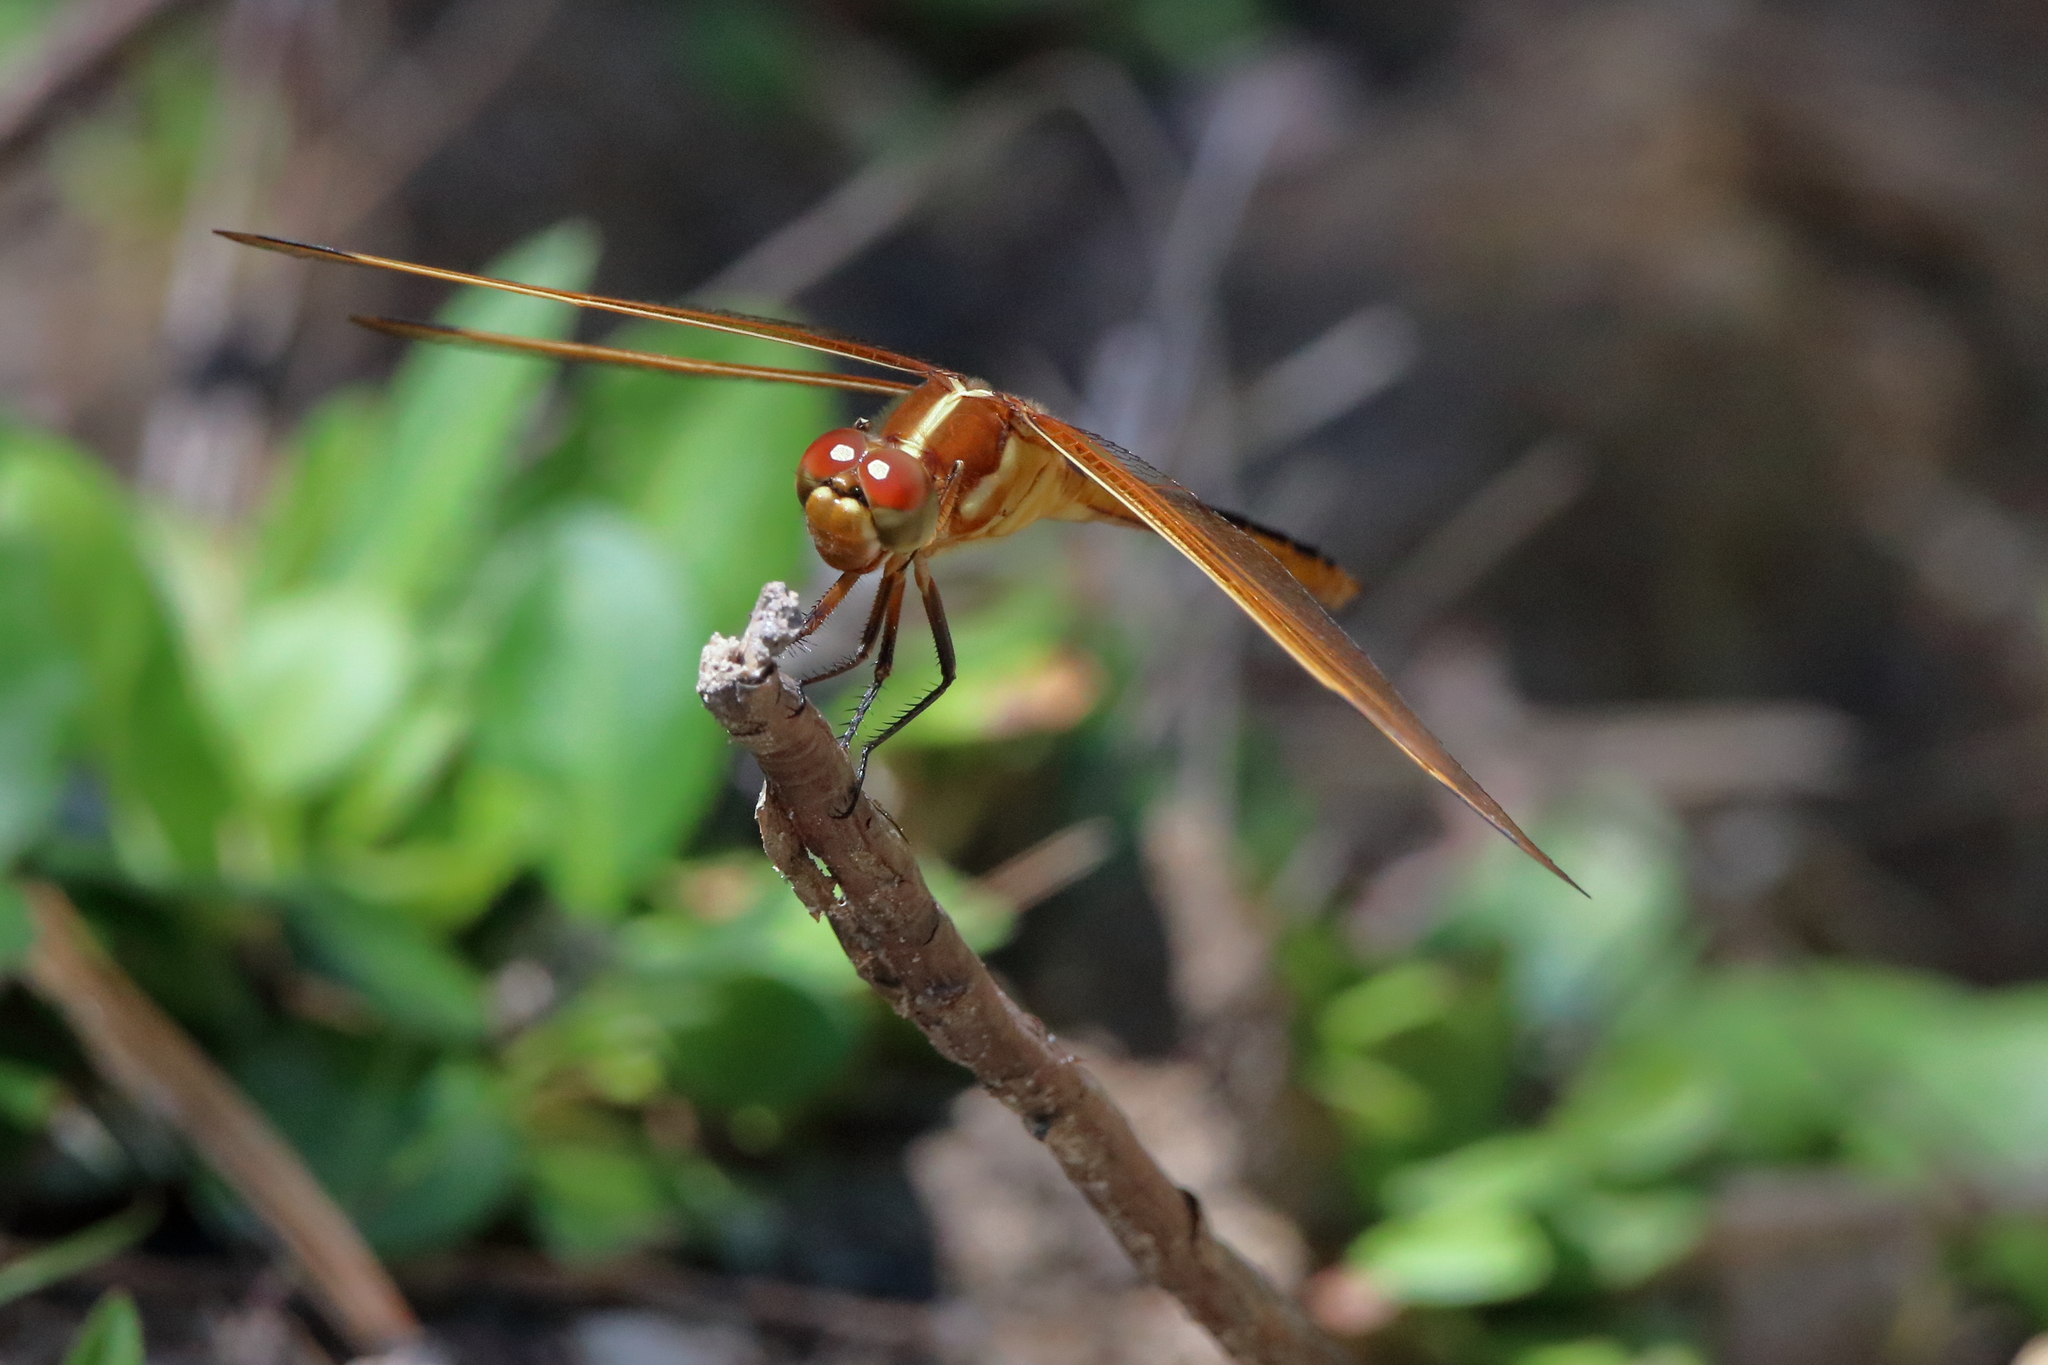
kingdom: Animalia
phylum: Arthropoda
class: Insecta
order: Odonata
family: Libellulidae
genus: Libellula
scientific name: Libellula auripennis
